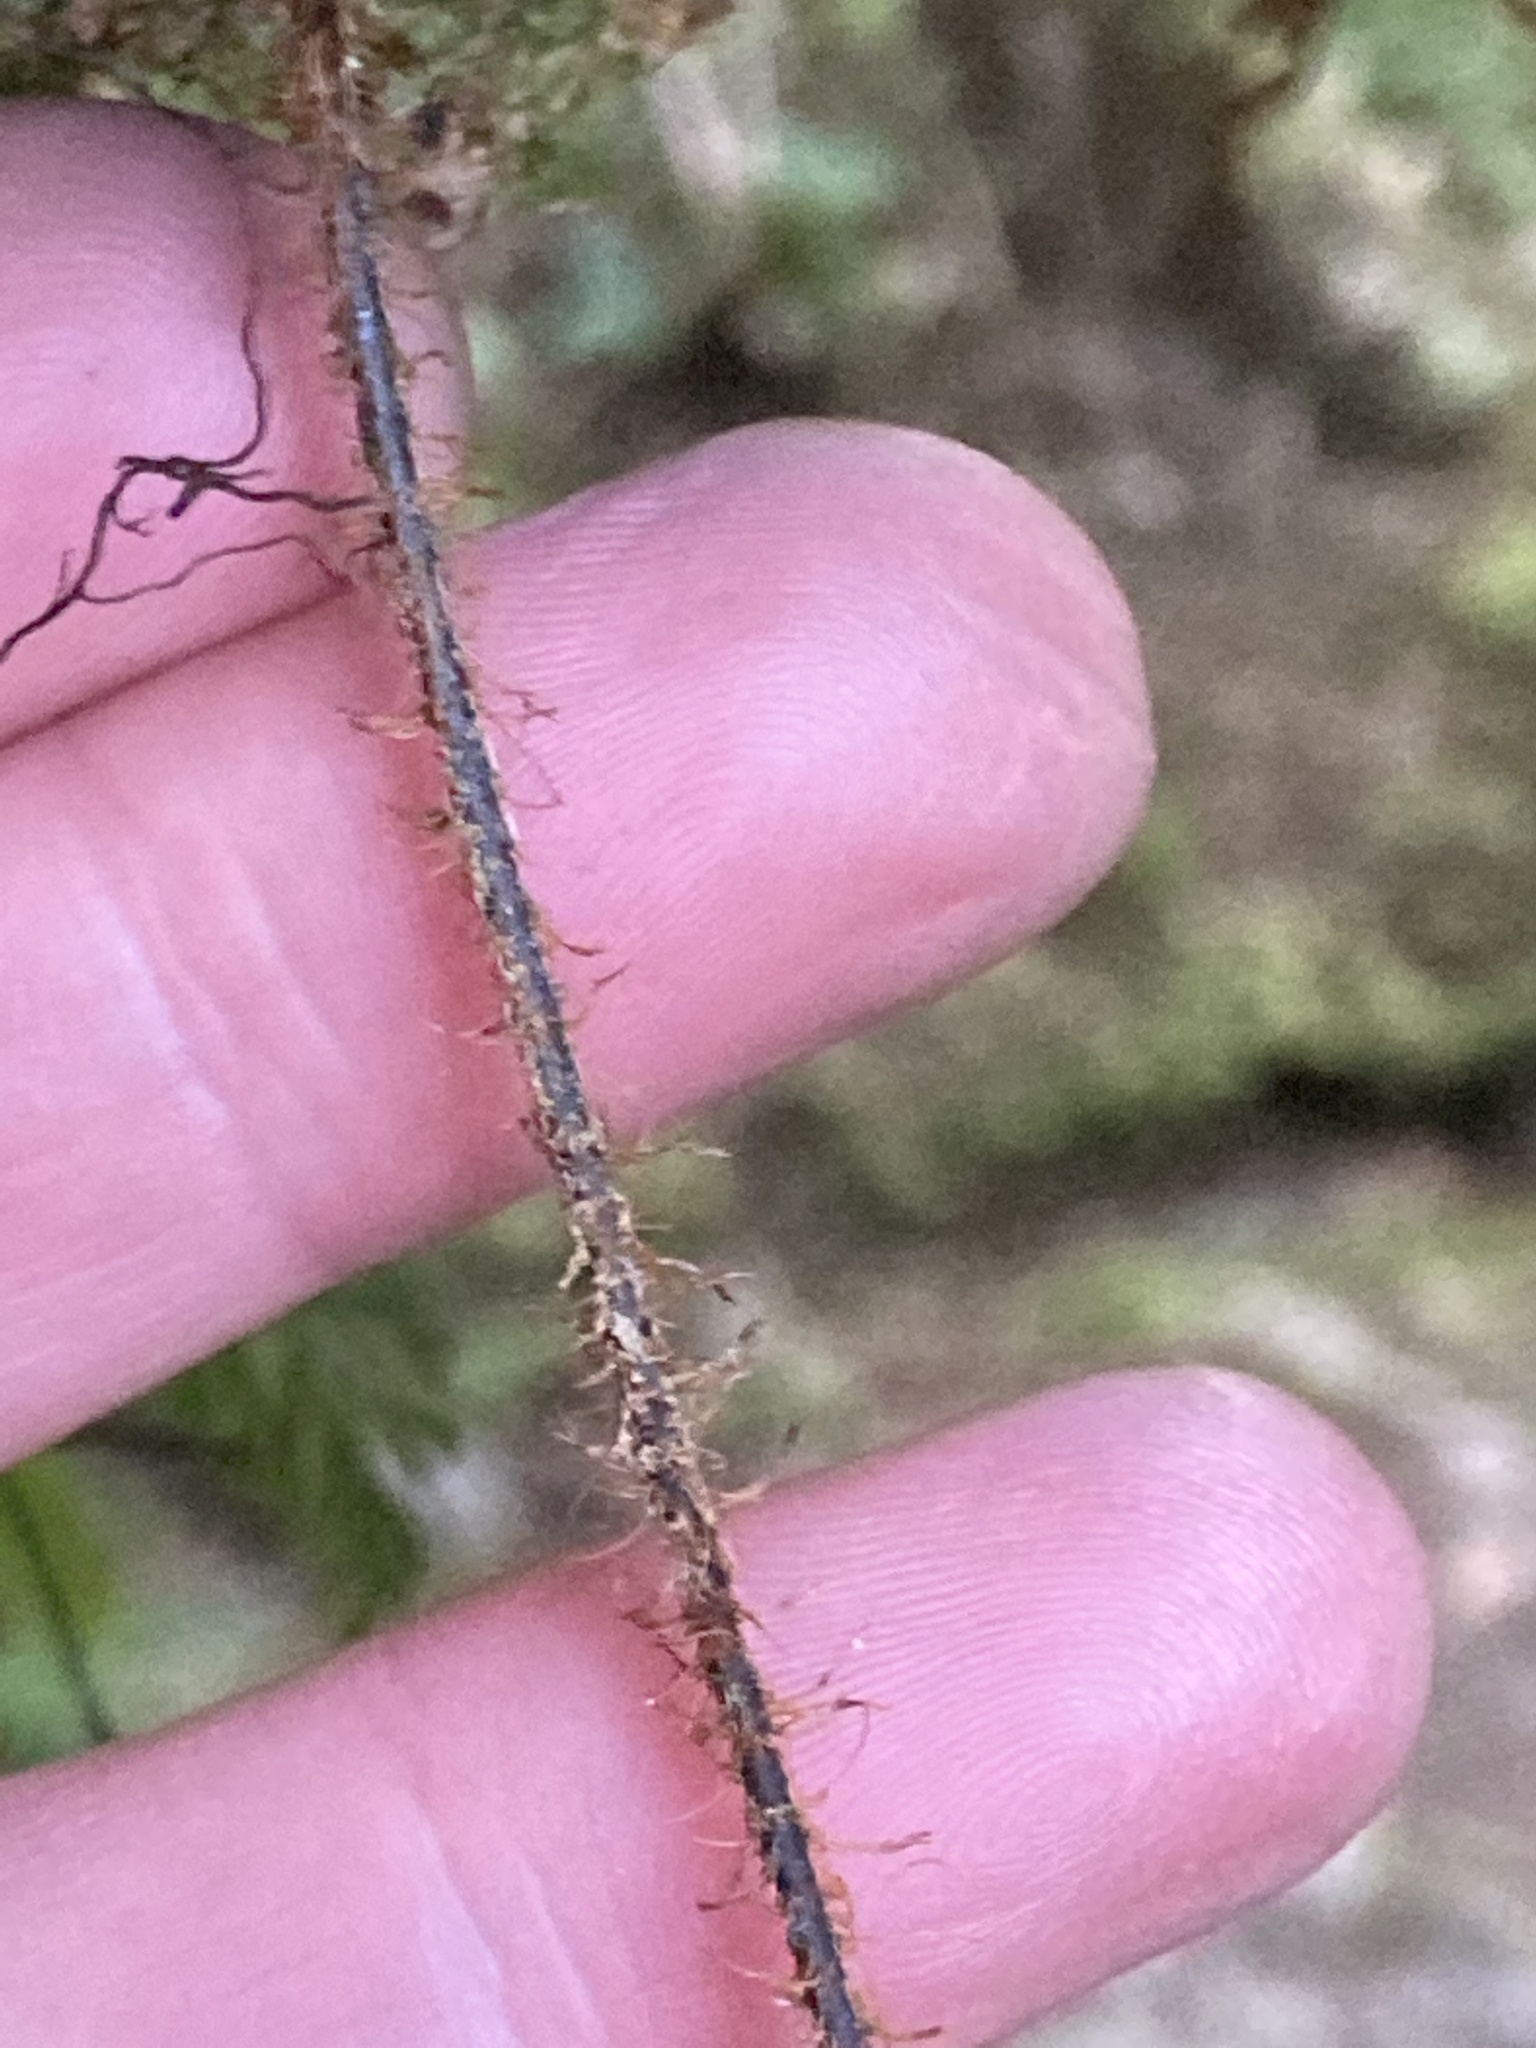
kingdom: Plantae
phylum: Tracheophyta
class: Polypodiopsida
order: Hymenophyllales
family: Hymenophyllaceae
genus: Hymenophyllum
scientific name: Hymenophyllum scabrum
